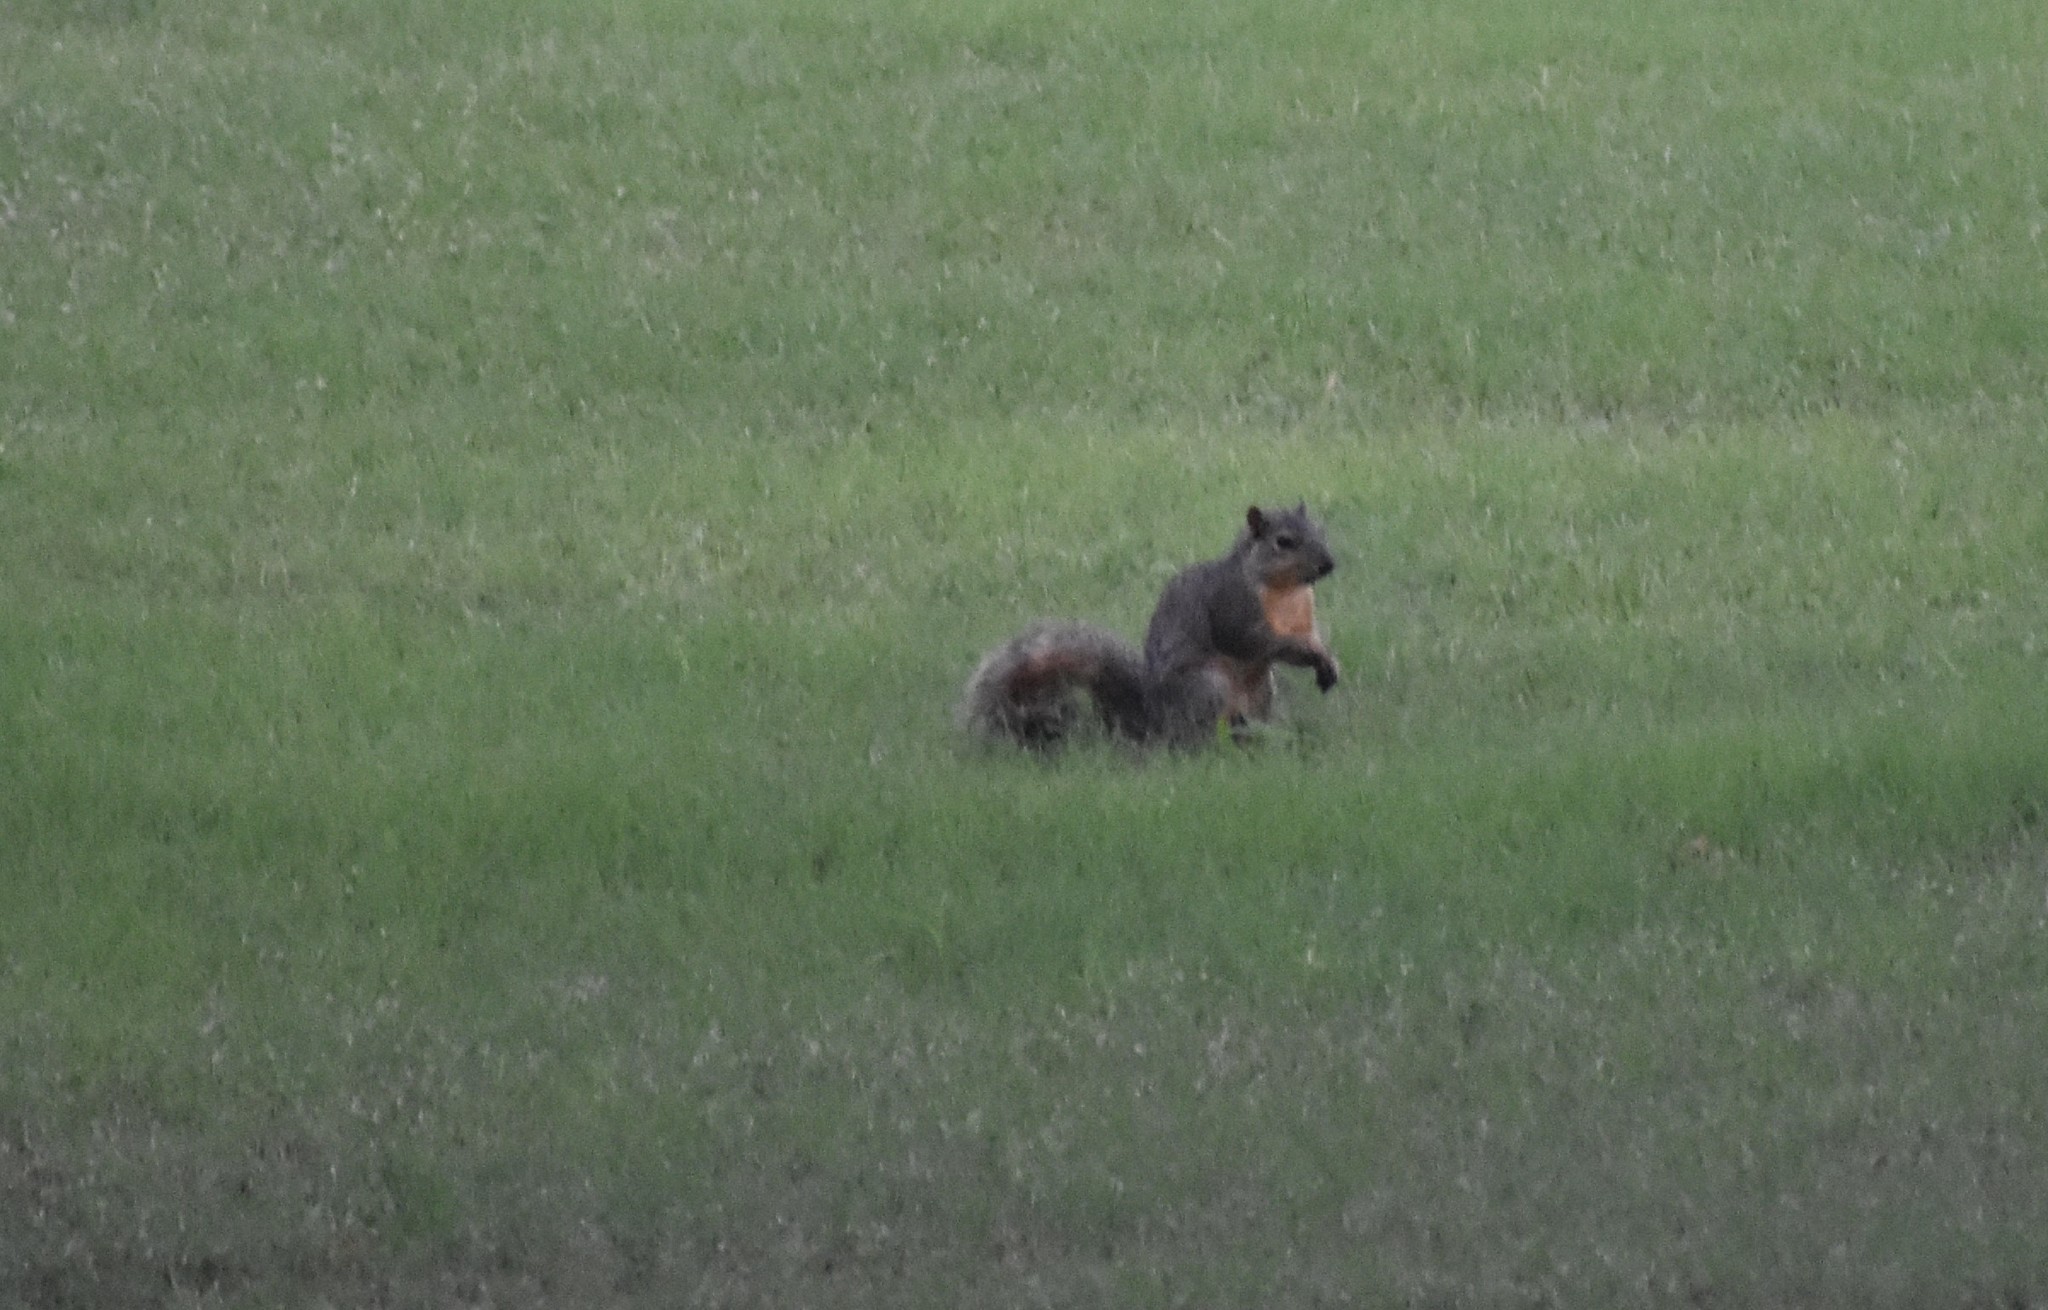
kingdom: Animalia
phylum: Chordata
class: Mammalia
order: Rodentia
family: Sciuridae
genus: Sciurus
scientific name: Sciurus niger
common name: Fox squirrel
